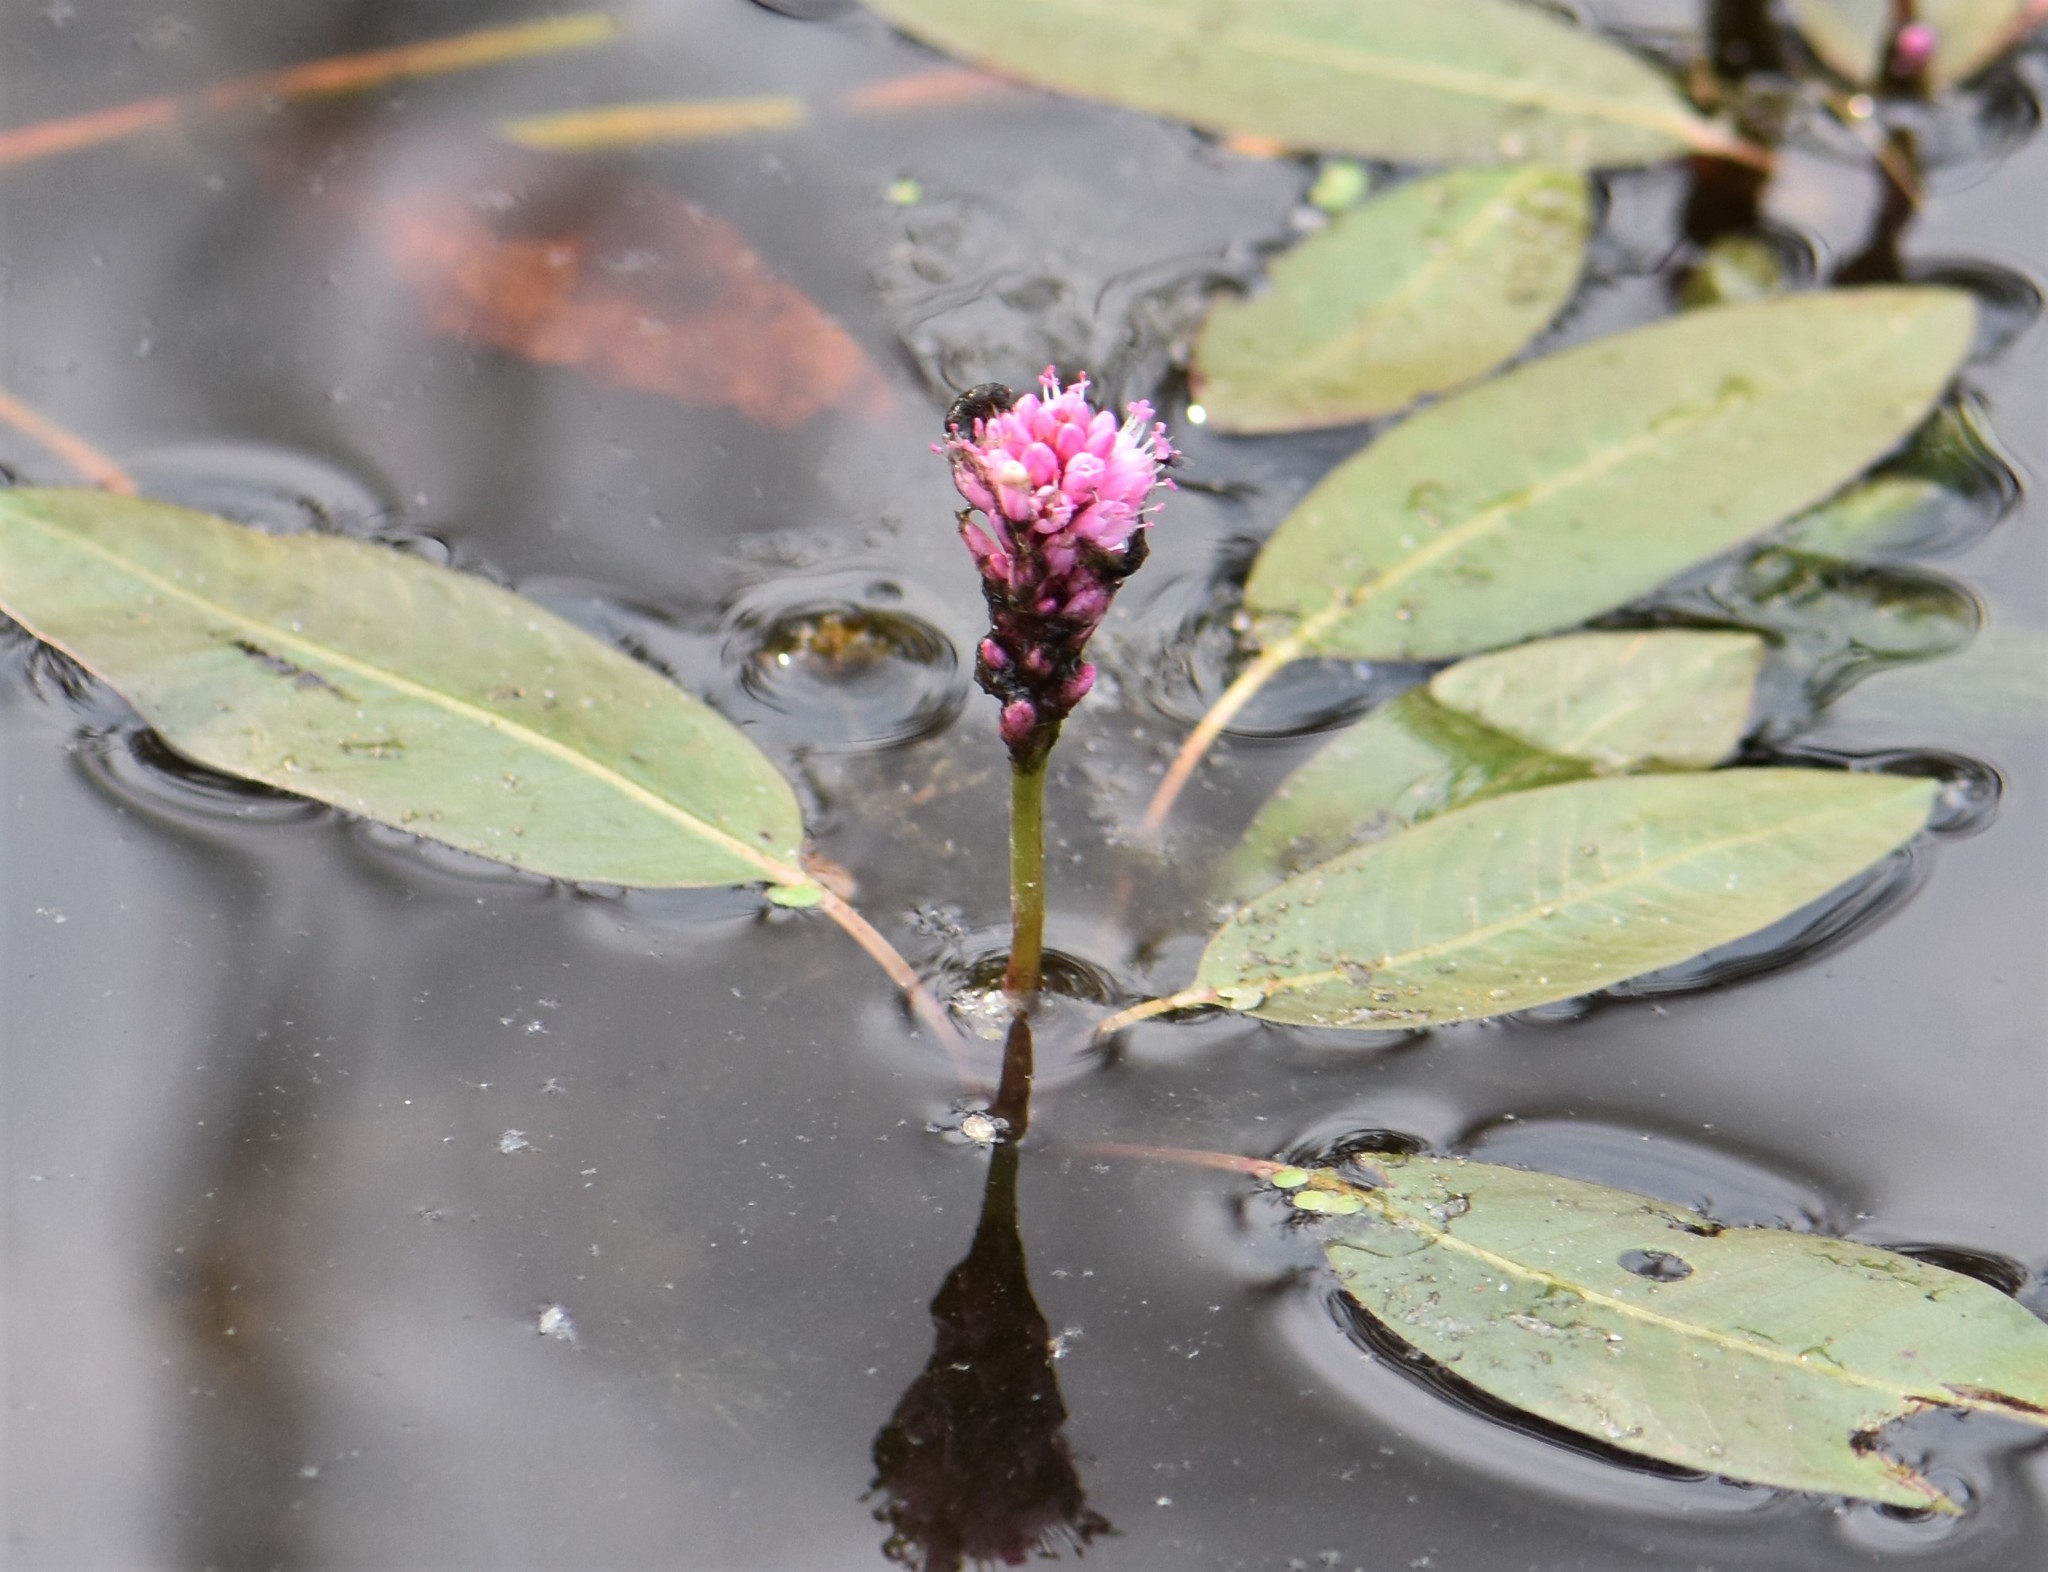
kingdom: Plantae
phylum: Tracheophyta
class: Magnoliopsida
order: Caryophyllales
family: Polygonaceae
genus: Persicaria
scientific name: Persicaria amphibia
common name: Amphibious bistort
